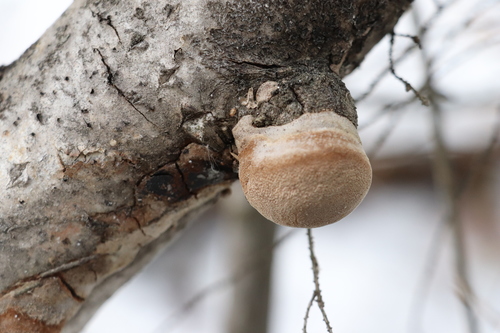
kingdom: Fungi
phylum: Basidiomycota
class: Agaricomycetes
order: Hymenochaetales
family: Hymenochaetaceae
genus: Phellinus
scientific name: Phellinus tremulae
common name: Aspen bracket
